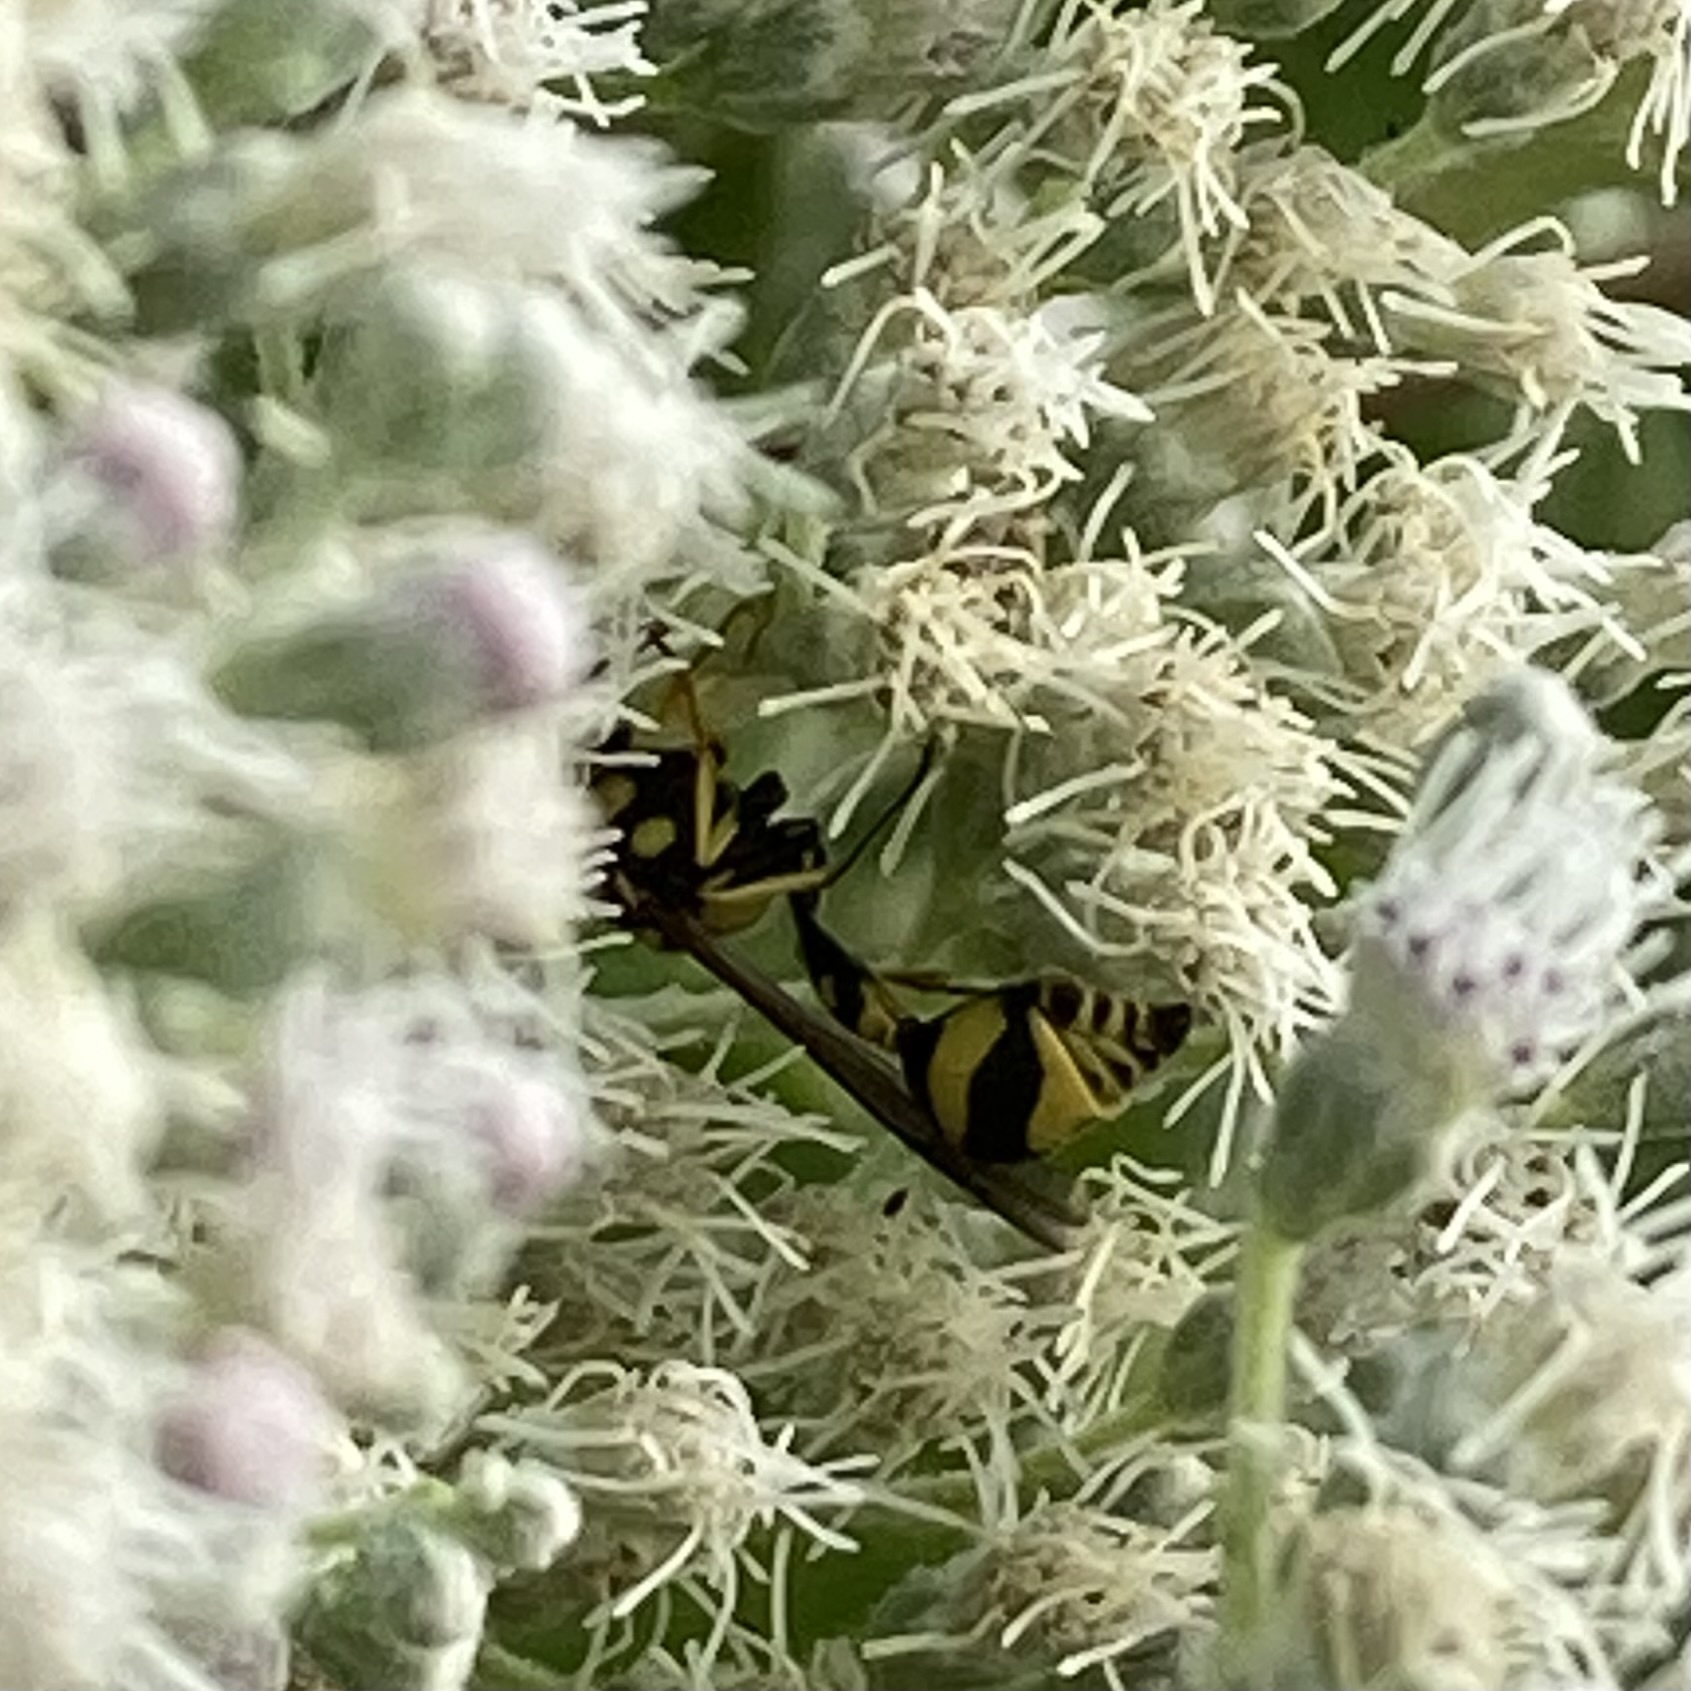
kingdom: Animalia
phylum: Arthropoda
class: Insecta
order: Hymenoptera
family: Vespidae
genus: Eumenes
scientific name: Eumenes mediterraneus
